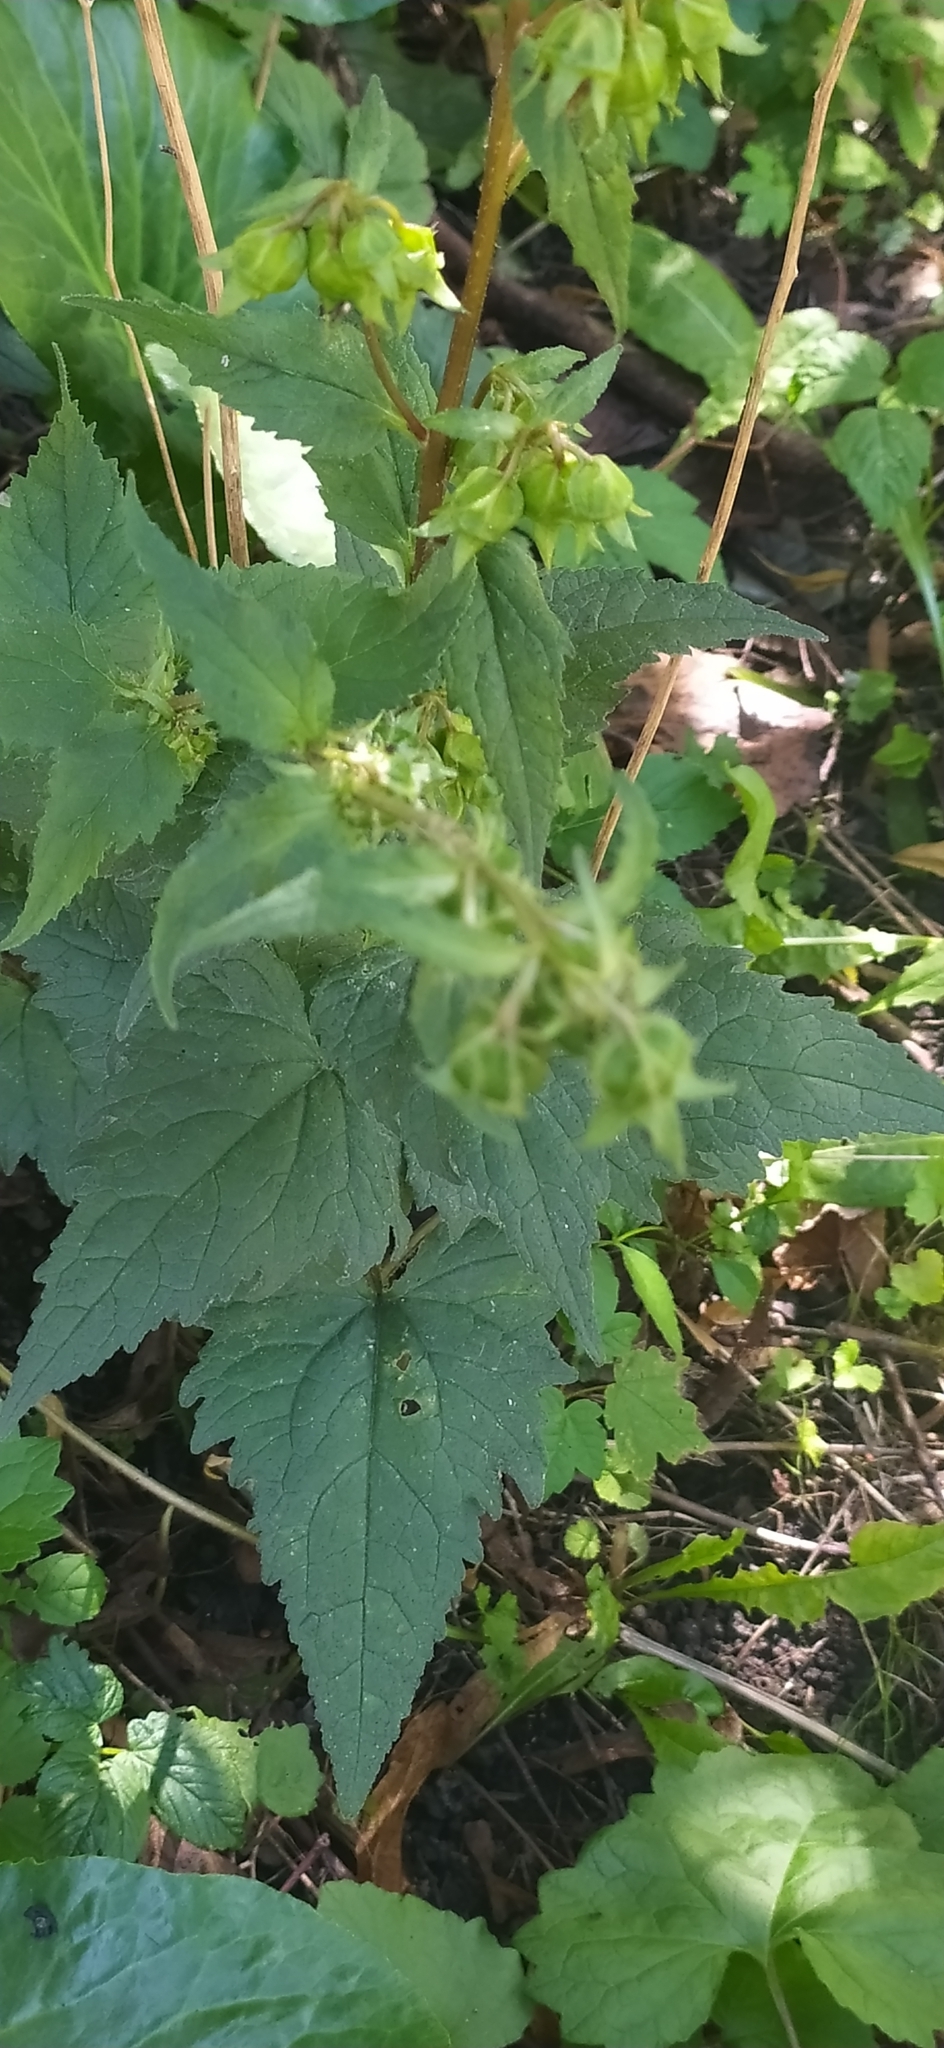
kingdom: Plantae
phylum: Tracheophyta
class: Magnoliopsida
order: Asterales
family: Campanulaceae
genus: Campanula
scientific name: Campanula trachelium
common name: Nettle-leaved bellflower
